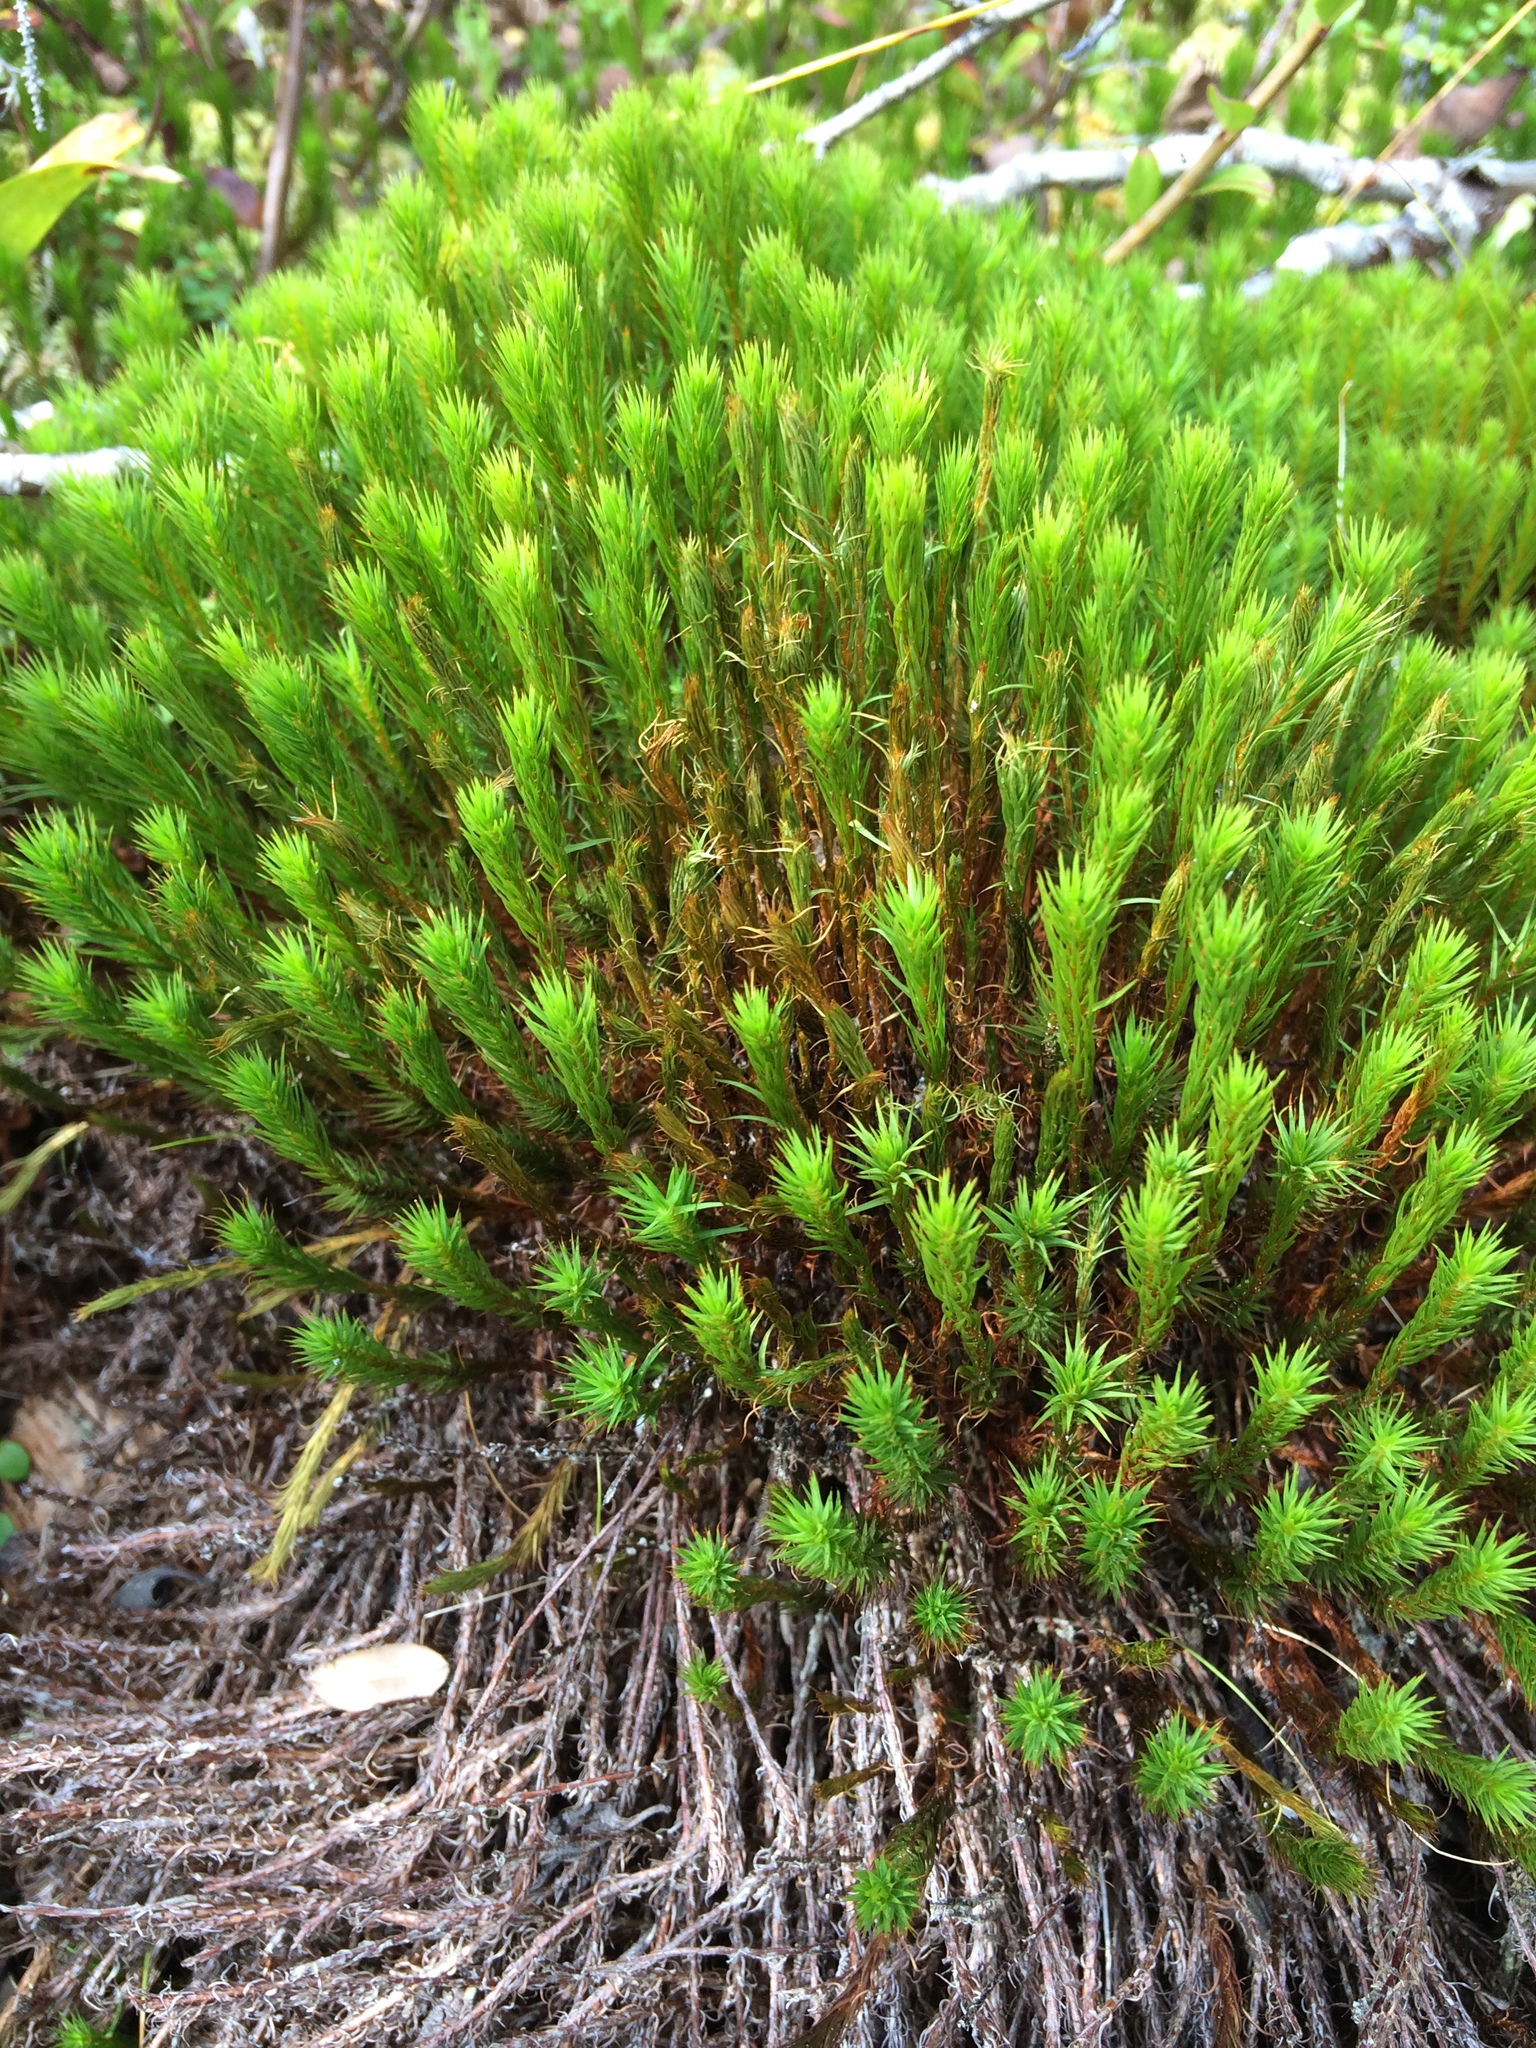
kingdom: Plantae
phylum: Bryophyta
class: Polytrichopsida
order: Polytrichales
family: Polytrichaceae
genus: Polytrichum
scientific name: Polytrichum strictum
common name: Bog haircap moss
